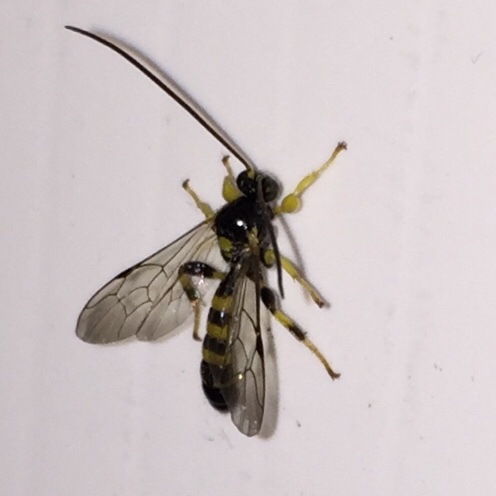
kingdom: Animalia
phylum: Arthropoda
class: Insecta
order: Hymenoptera
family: Ichneumonidae
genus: Colpotrochia
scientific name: Colpotrochia trifasciata
